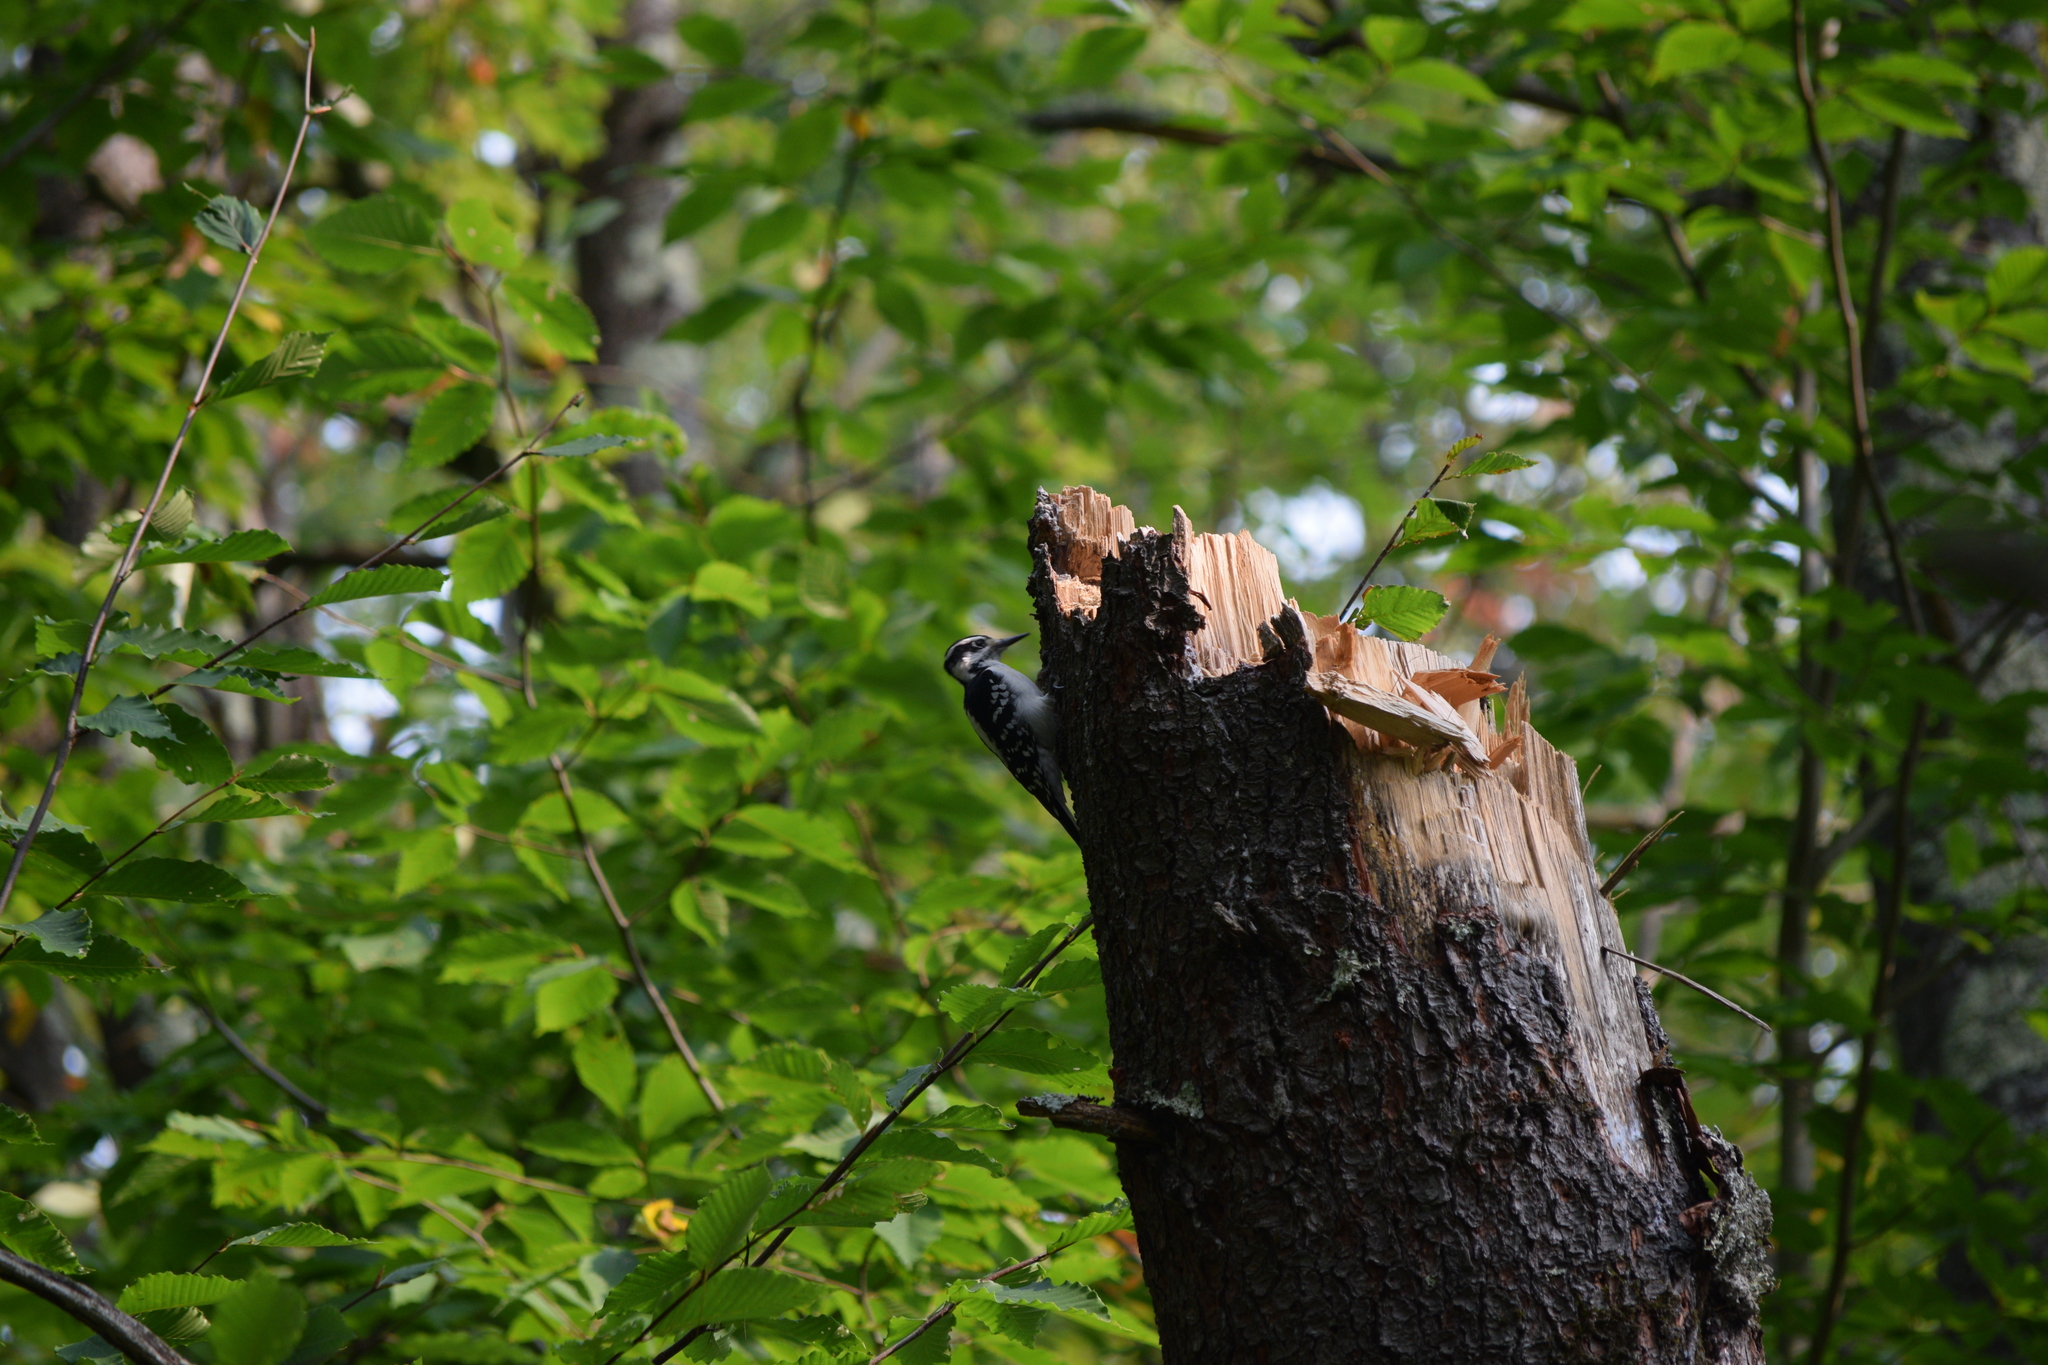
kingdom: Animalia
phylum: Chordata
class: Aves
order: Piciformes
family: Picidae
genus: Leuconotopicus
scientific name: Leuconotopicus villosus
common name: Hairy woodpecker
